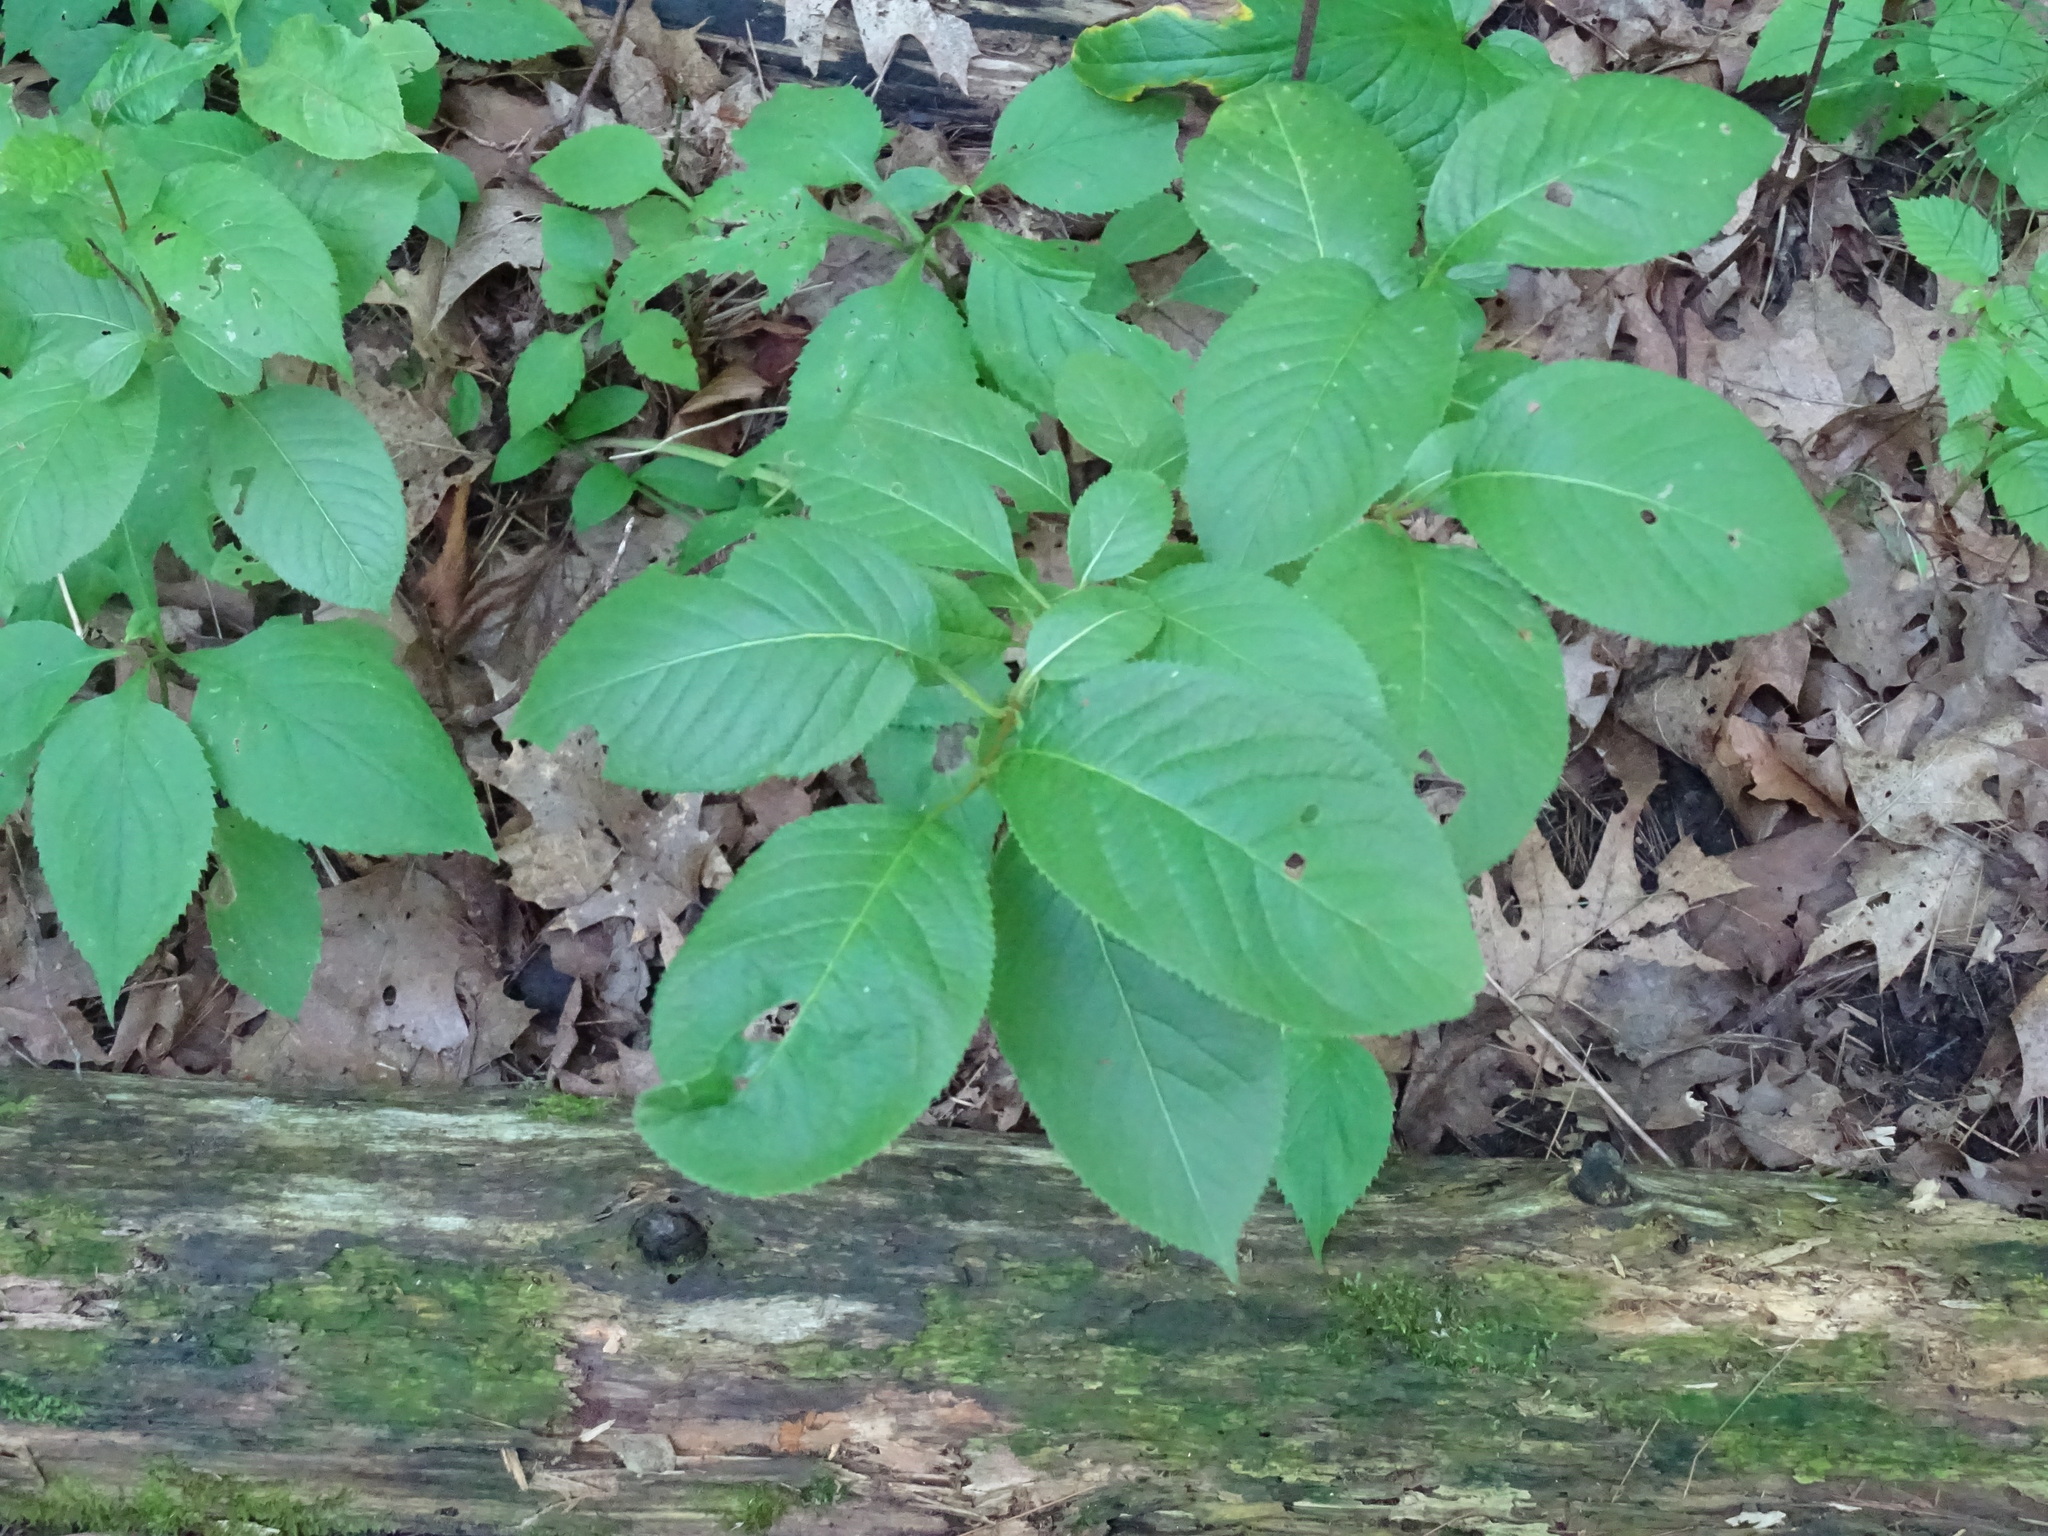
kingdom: Plantae
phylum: Tracheophyta
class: Magnoliopsida
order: Dipsacales
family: Viburnaceae
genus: Viburnum
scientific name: Viburnum lentago
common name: Black haw
